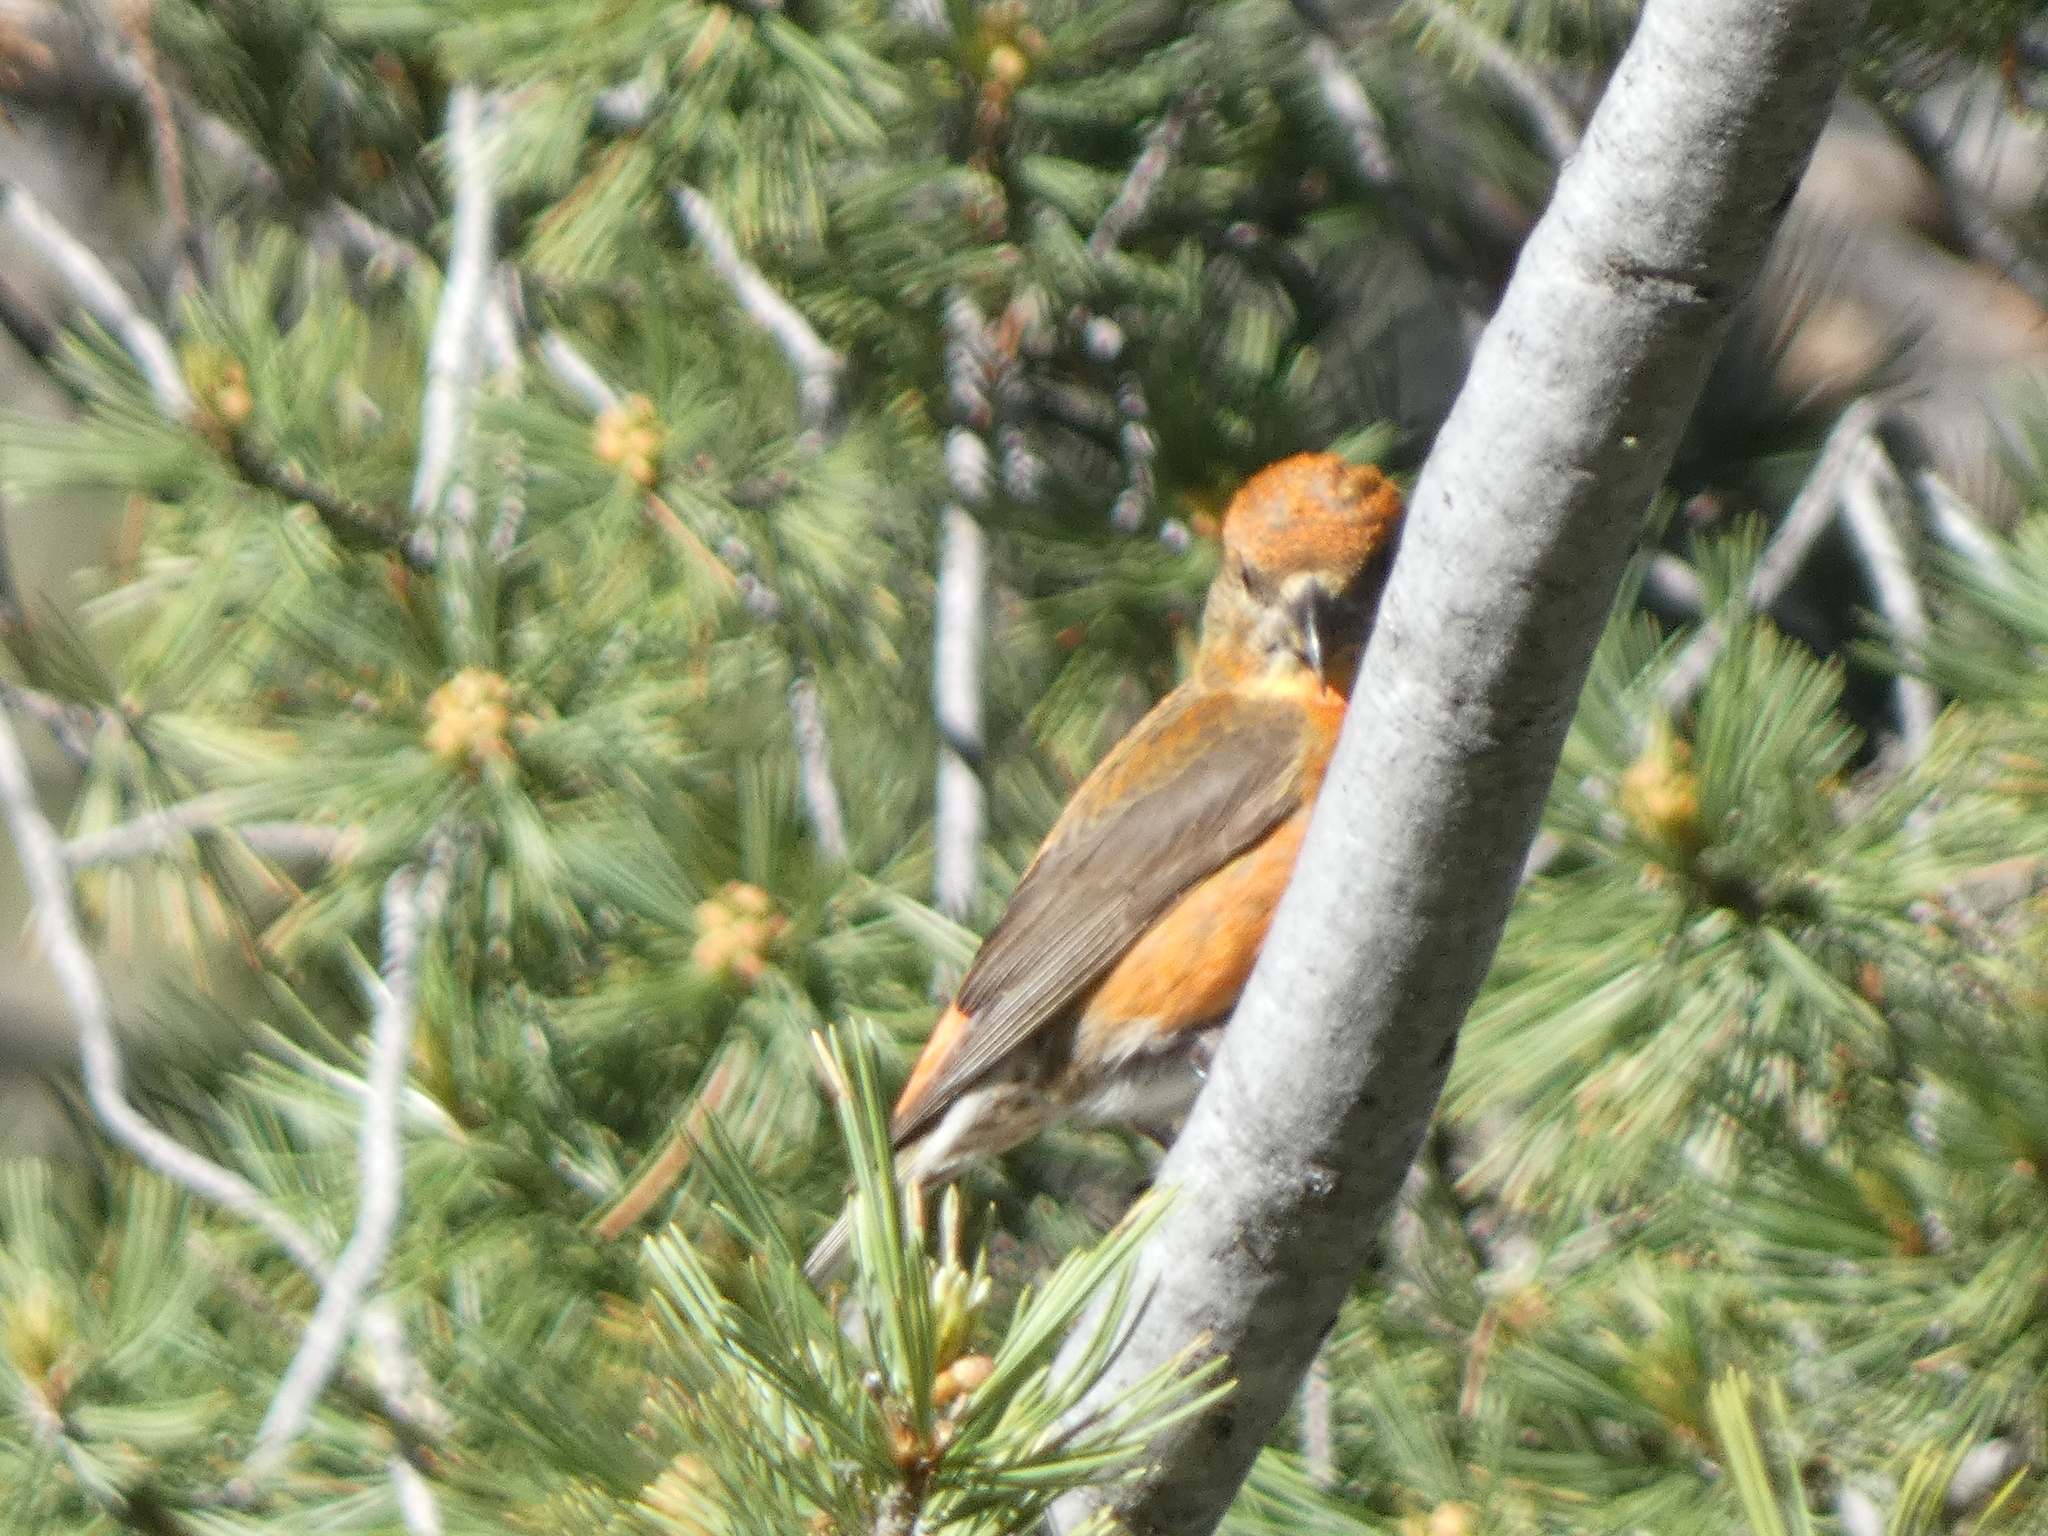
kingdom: Animalia
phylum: Chordata
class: Aves
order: Passeriformes
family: Fringillidae
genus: Loxia
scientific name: Loxia curvirostra
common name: Red crossbill
